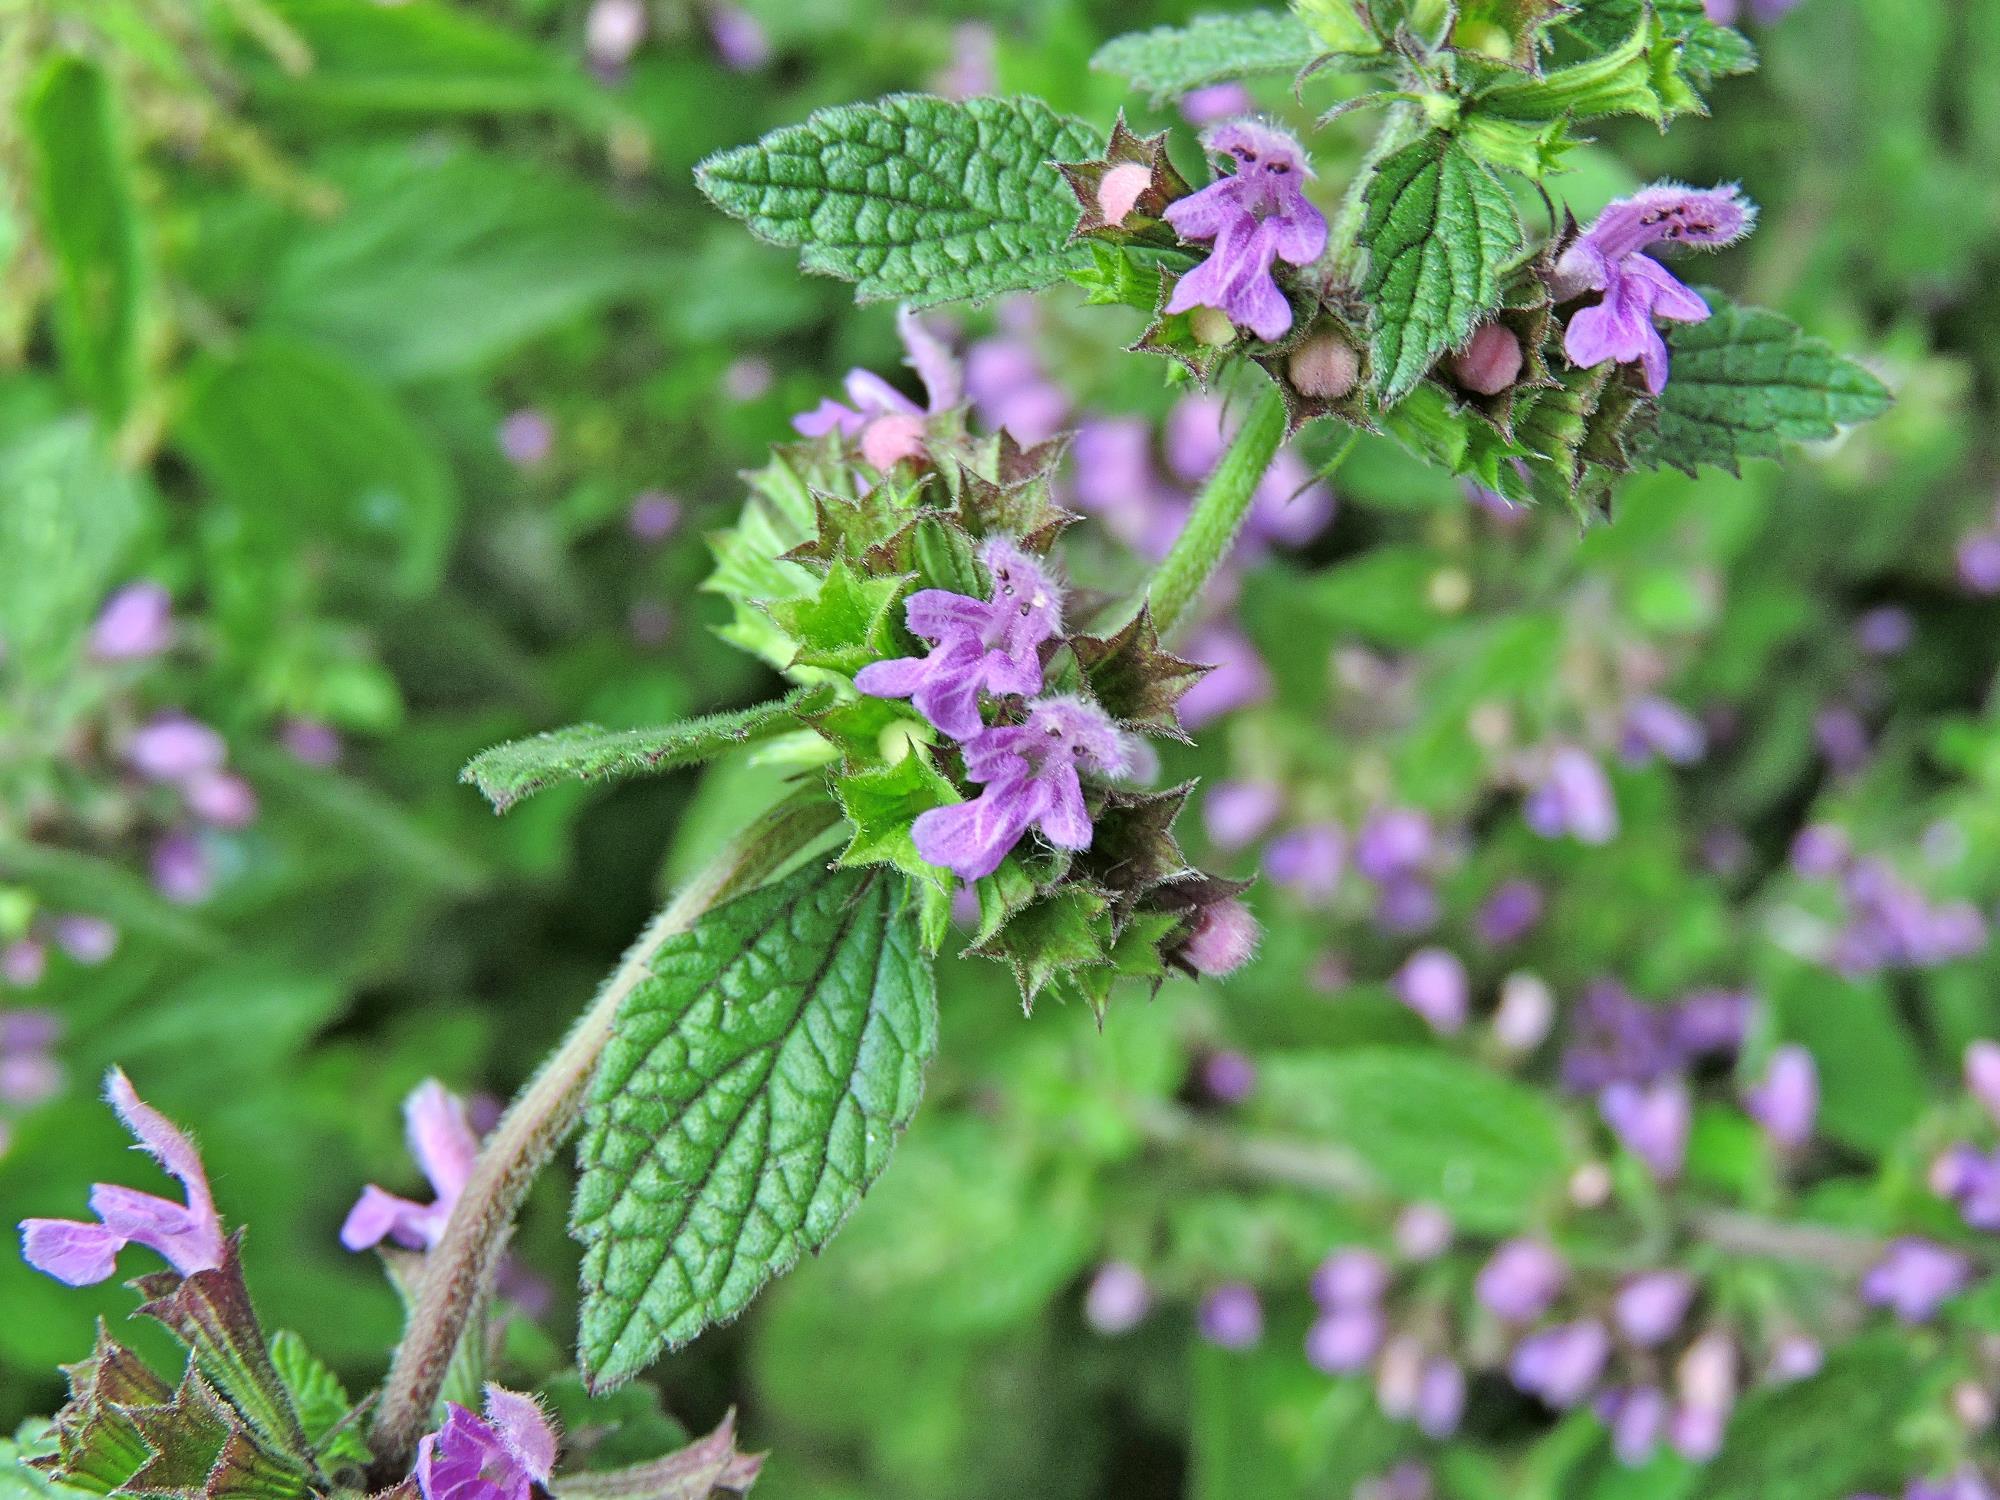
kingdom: Plantae
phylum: Tracheophyta
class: Magnoliopsida
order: Lamiales
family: Lamiaceae
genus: Ballota
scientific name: Ballota nigra
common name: Black horehound
